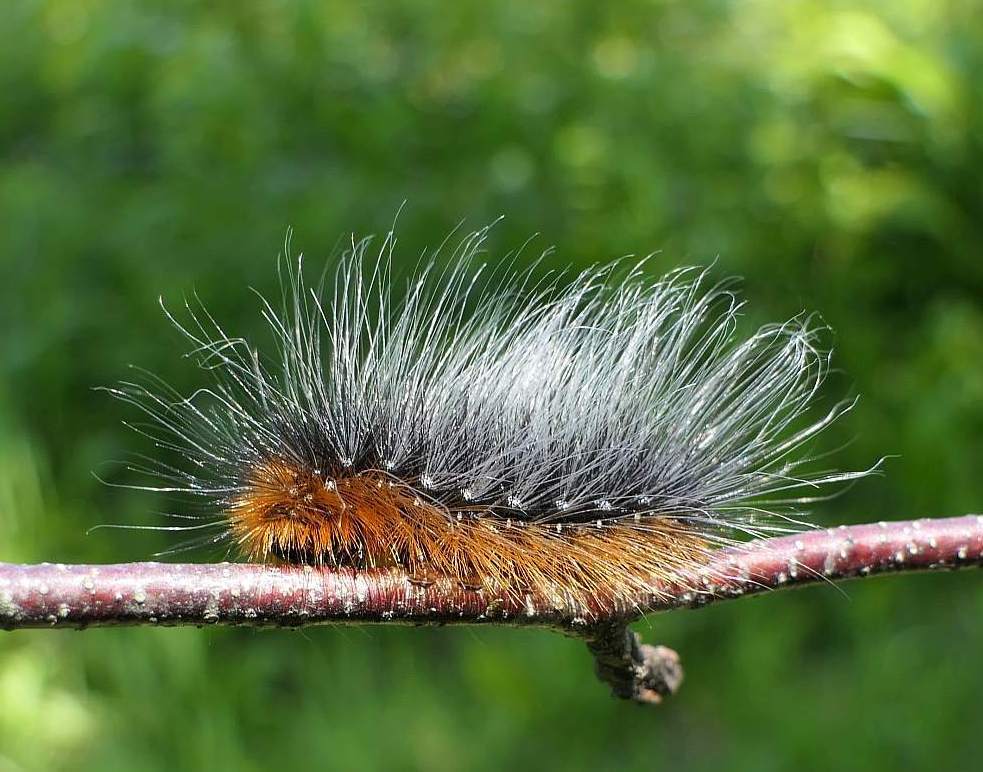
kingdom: Animalia
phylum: Arthropoda
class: Insecta
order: Lepidoptera
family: Erebidae
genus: Arctia
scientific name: Arctia caja
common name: Garden tiger
